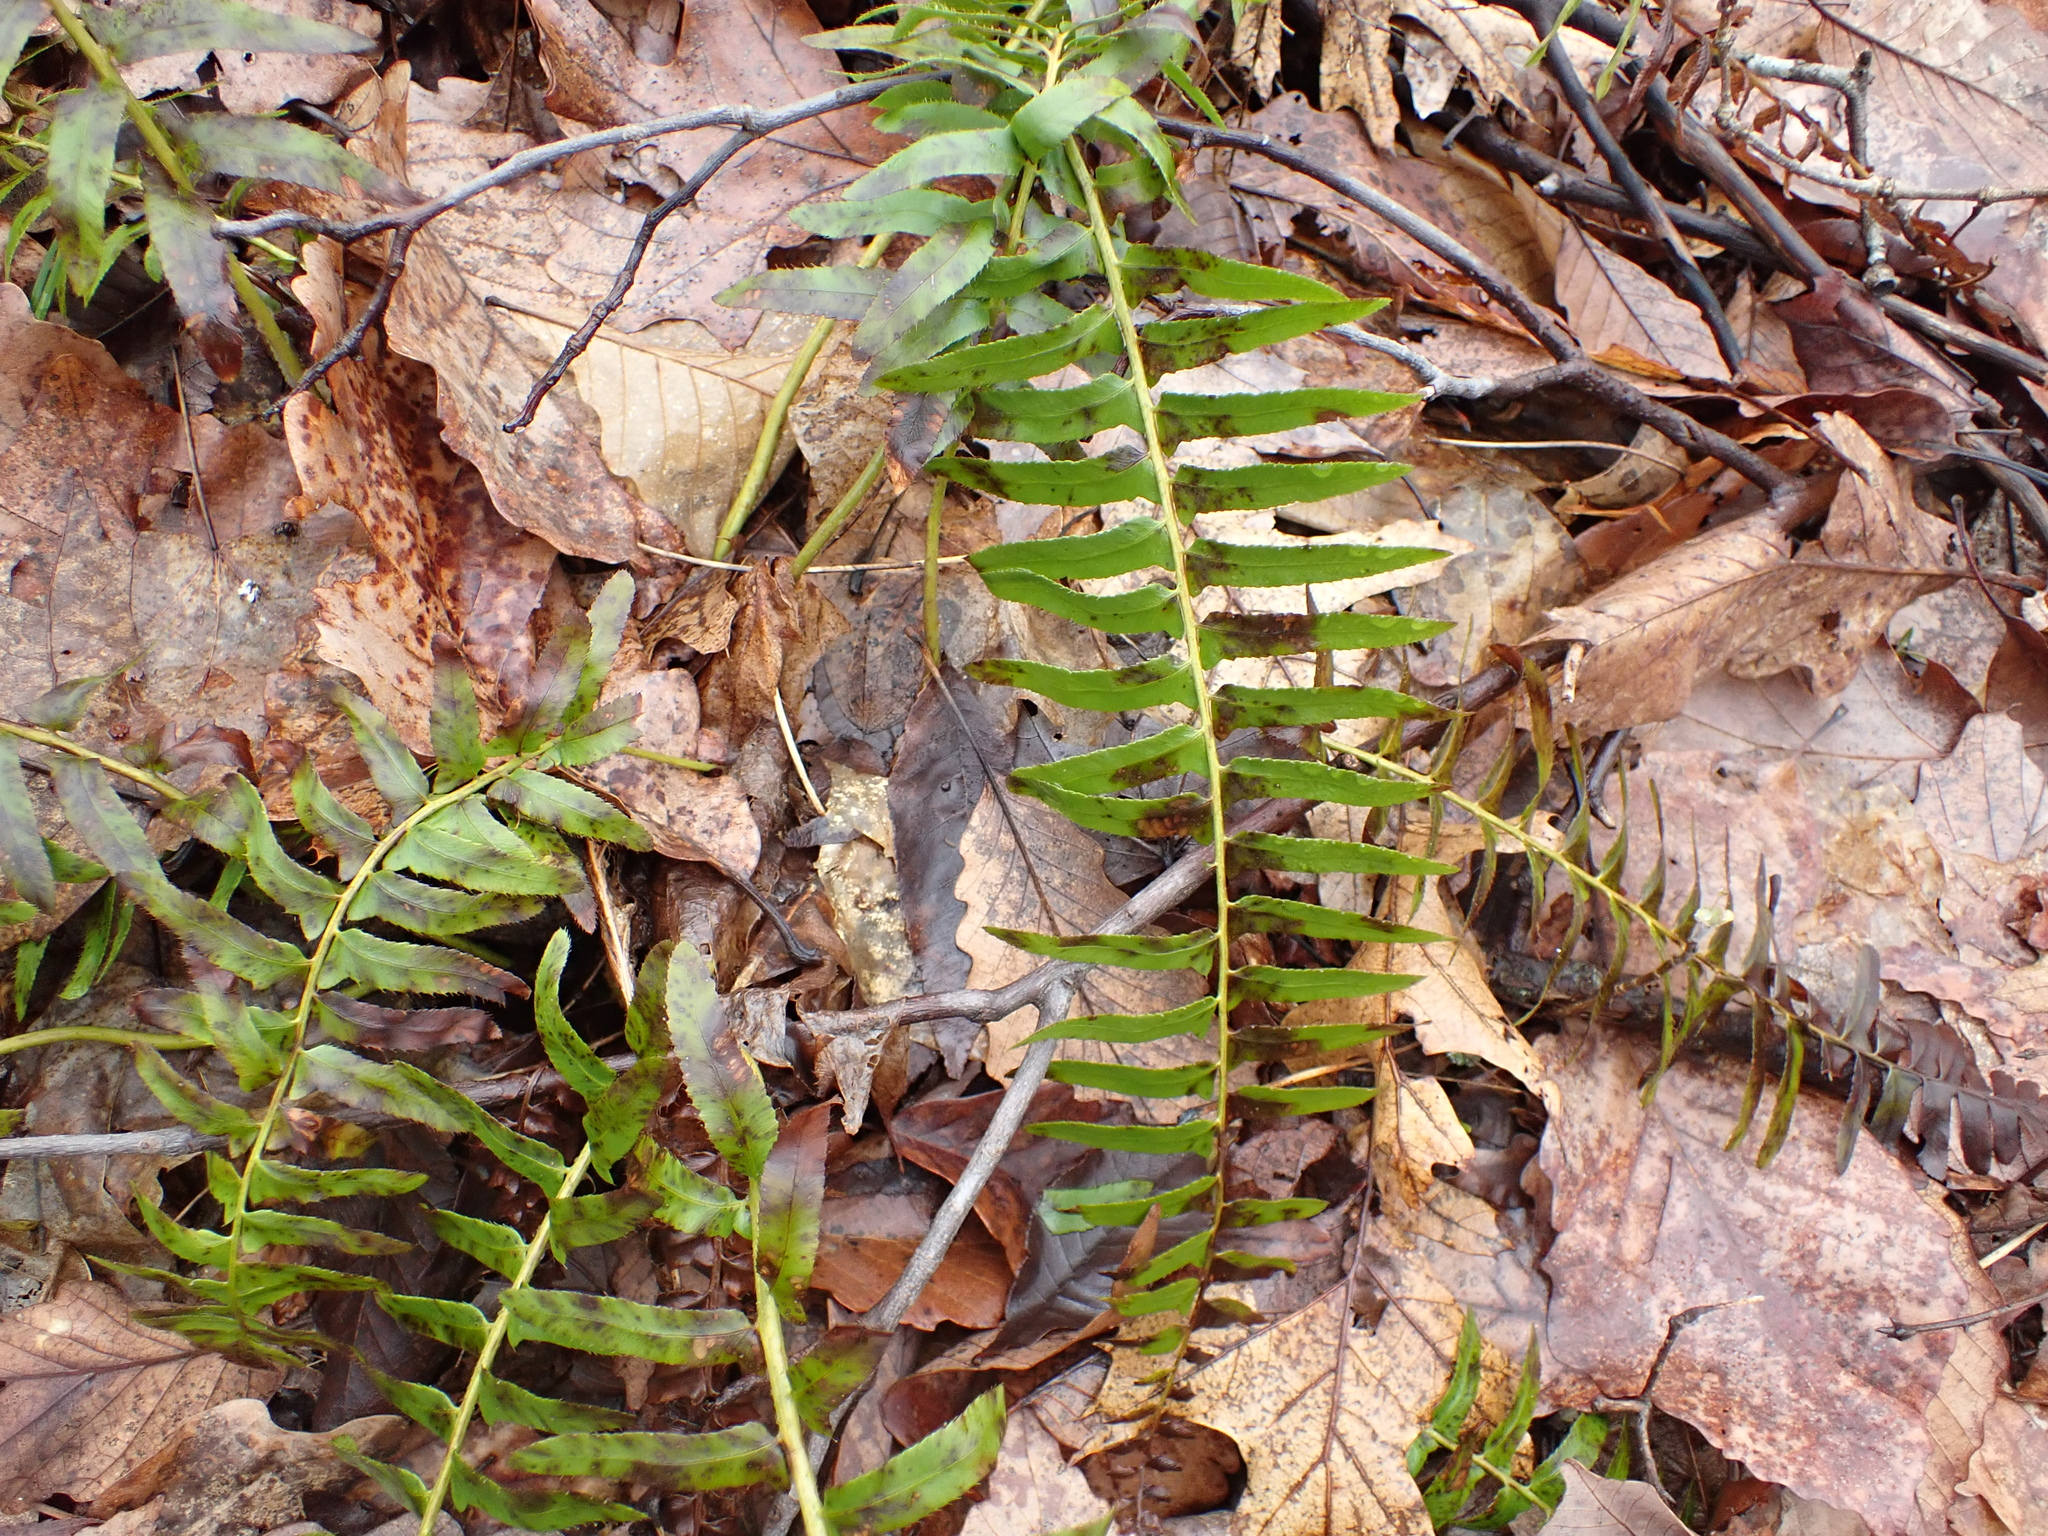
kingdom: Plantae
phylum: Tracheophyta
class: Polypodiopsida
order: Polypodiales
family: Dryopteridaceae
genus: Polystichum
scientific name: Polystichum acrostichoides
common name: Christmas fern
